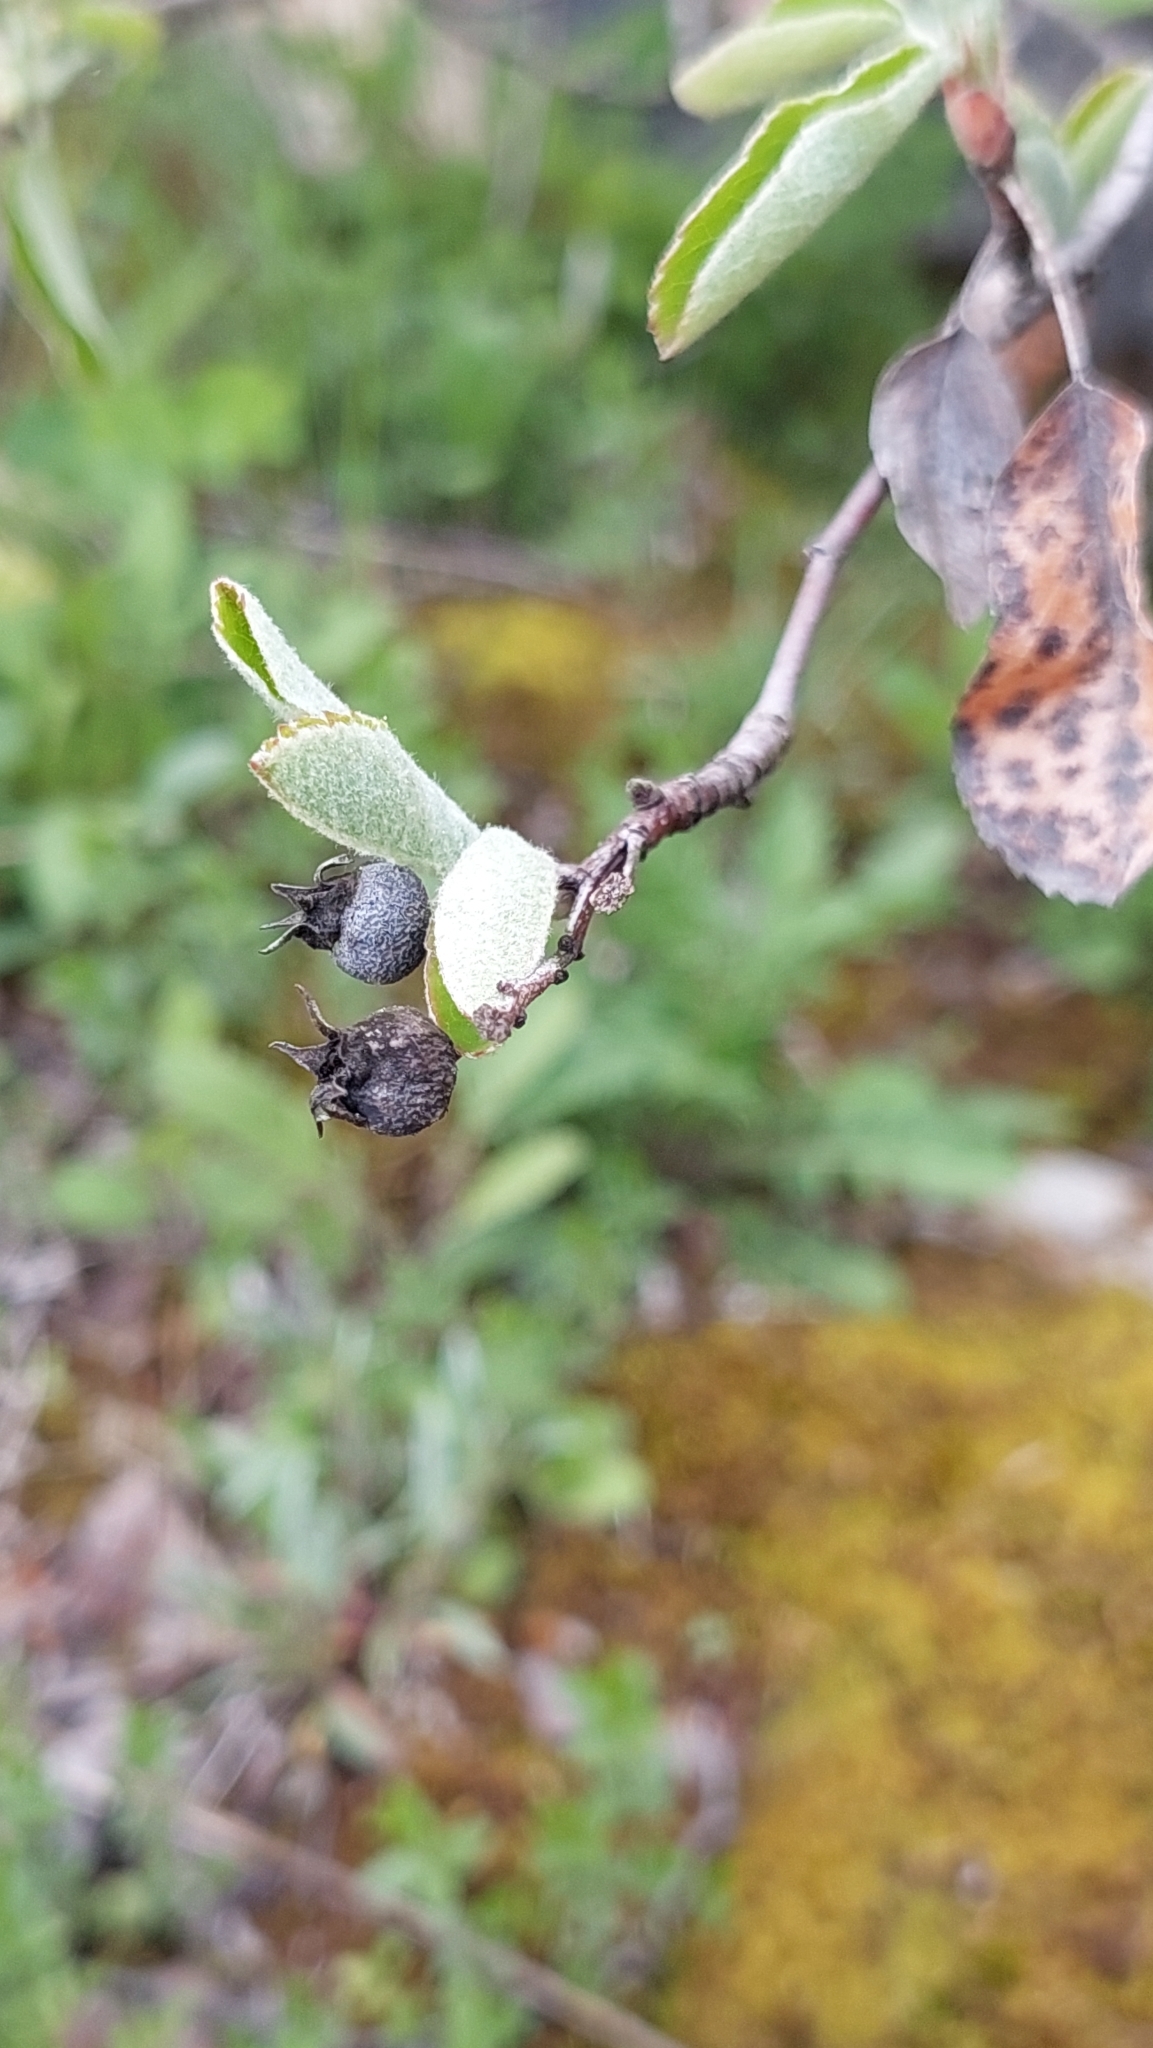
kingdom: Plantae
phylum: Tracheophyta
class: Magnoliopsida
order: Rosales
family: Rosaceae
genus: Amelanchier
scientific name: Amelanchier ovalis
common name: Serviceberry
